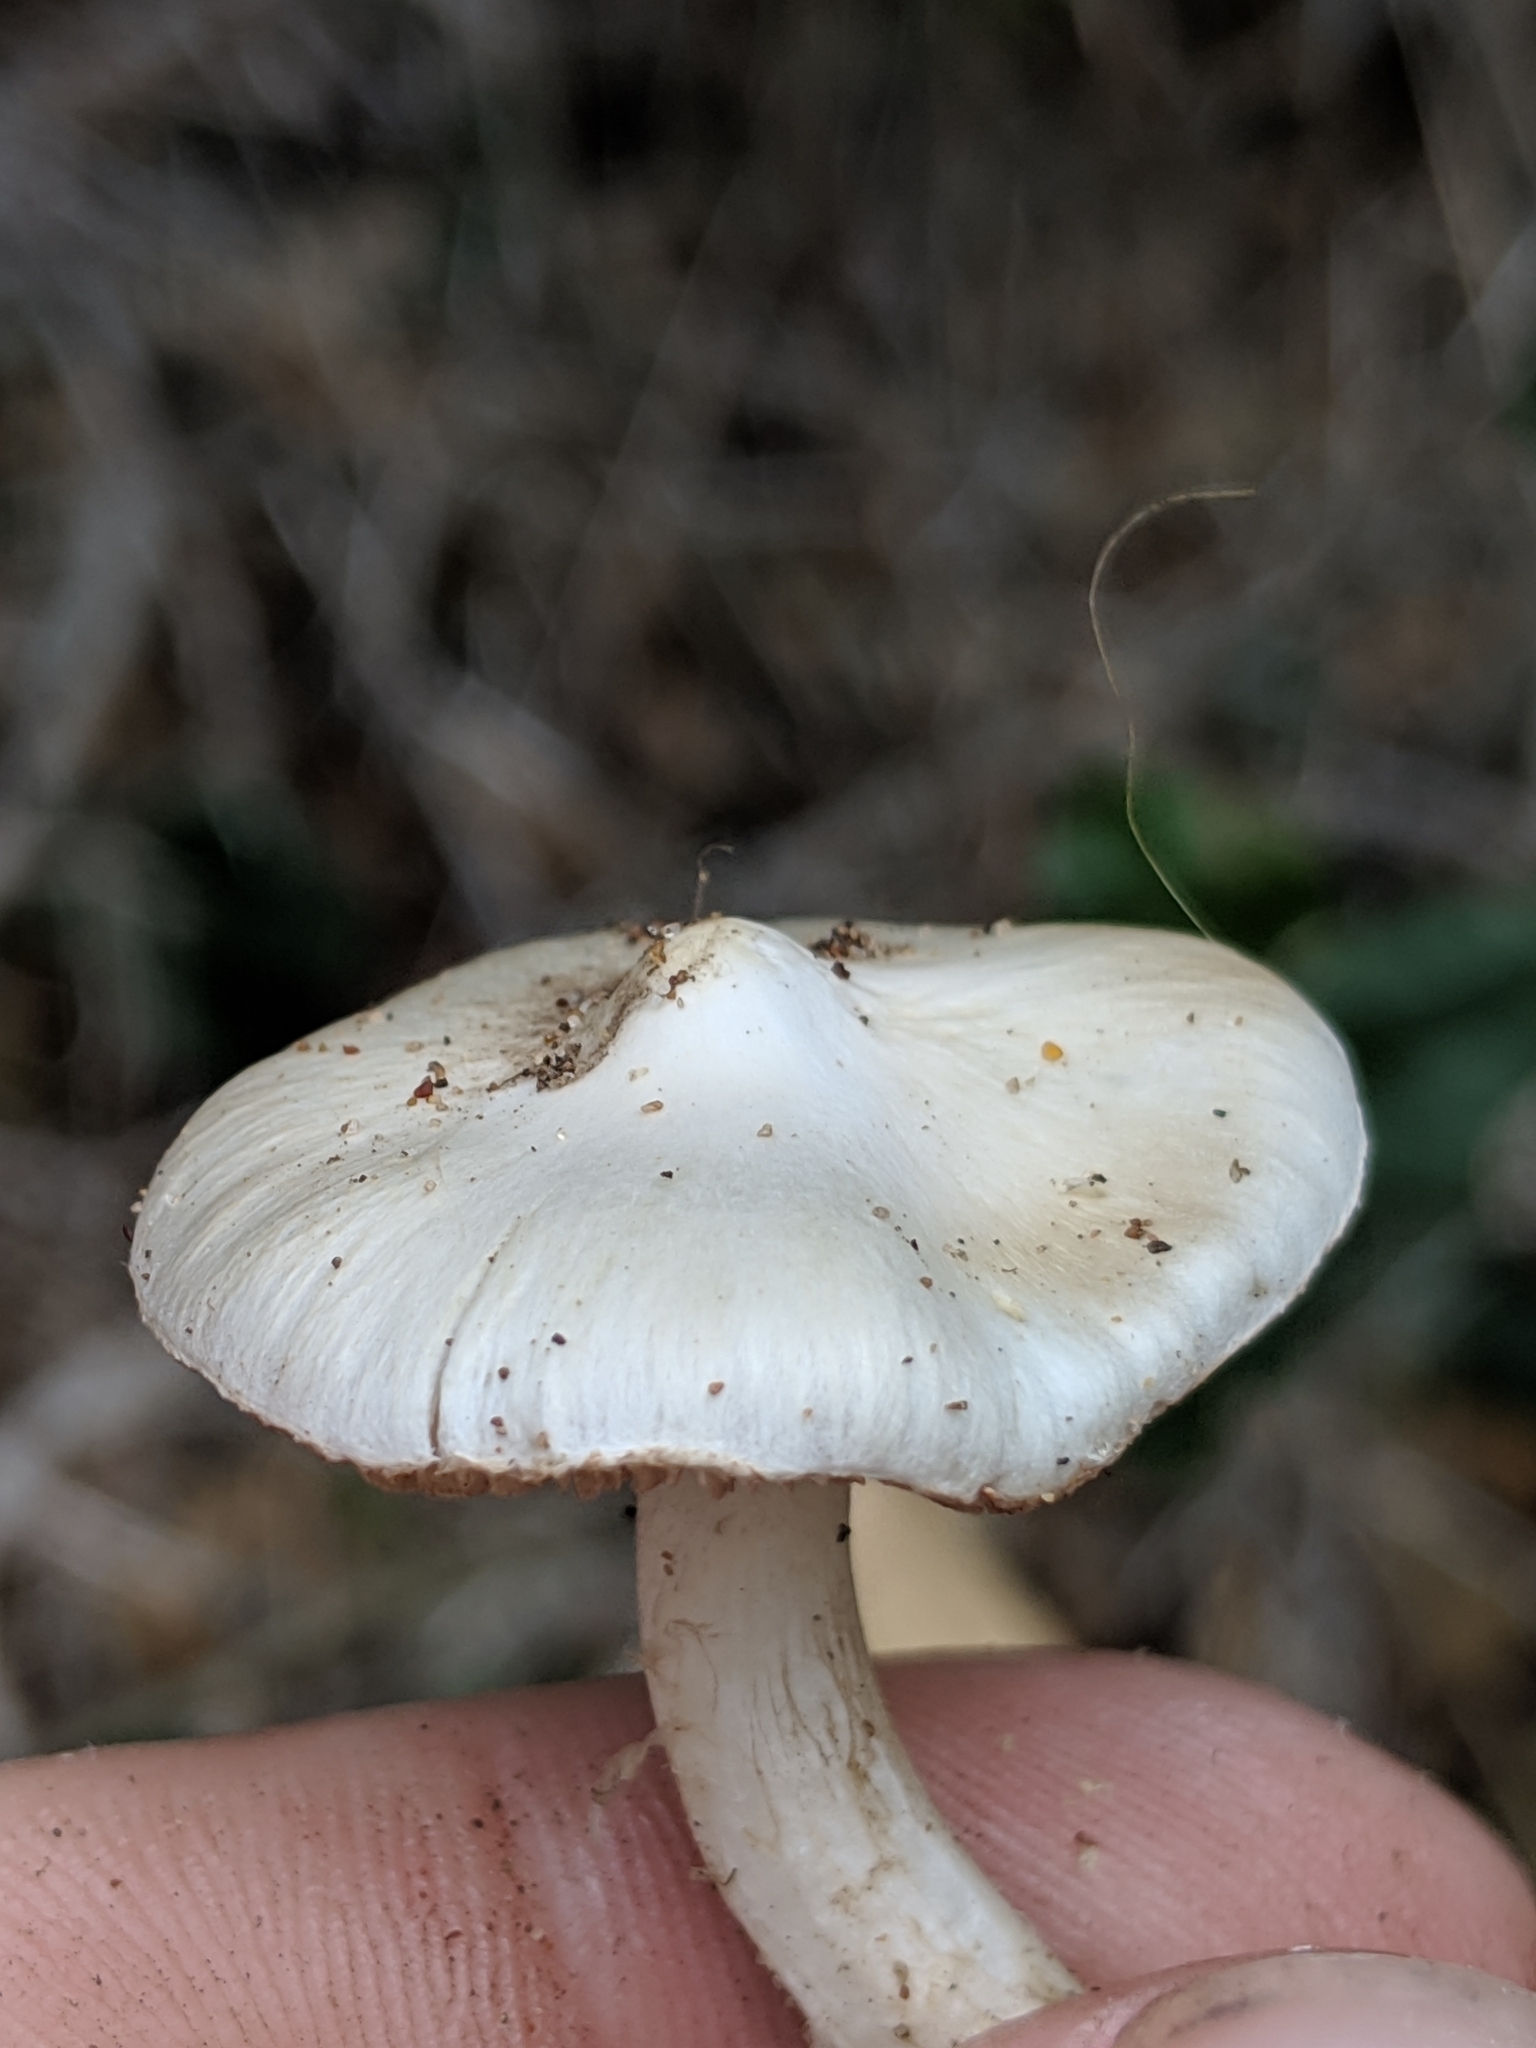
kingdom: Fungi
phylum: Basidiomycota
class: Agaricomycetes
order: Agaricales
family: Inocybaceae
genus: Inocybe
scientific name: Inocybe insinuata
